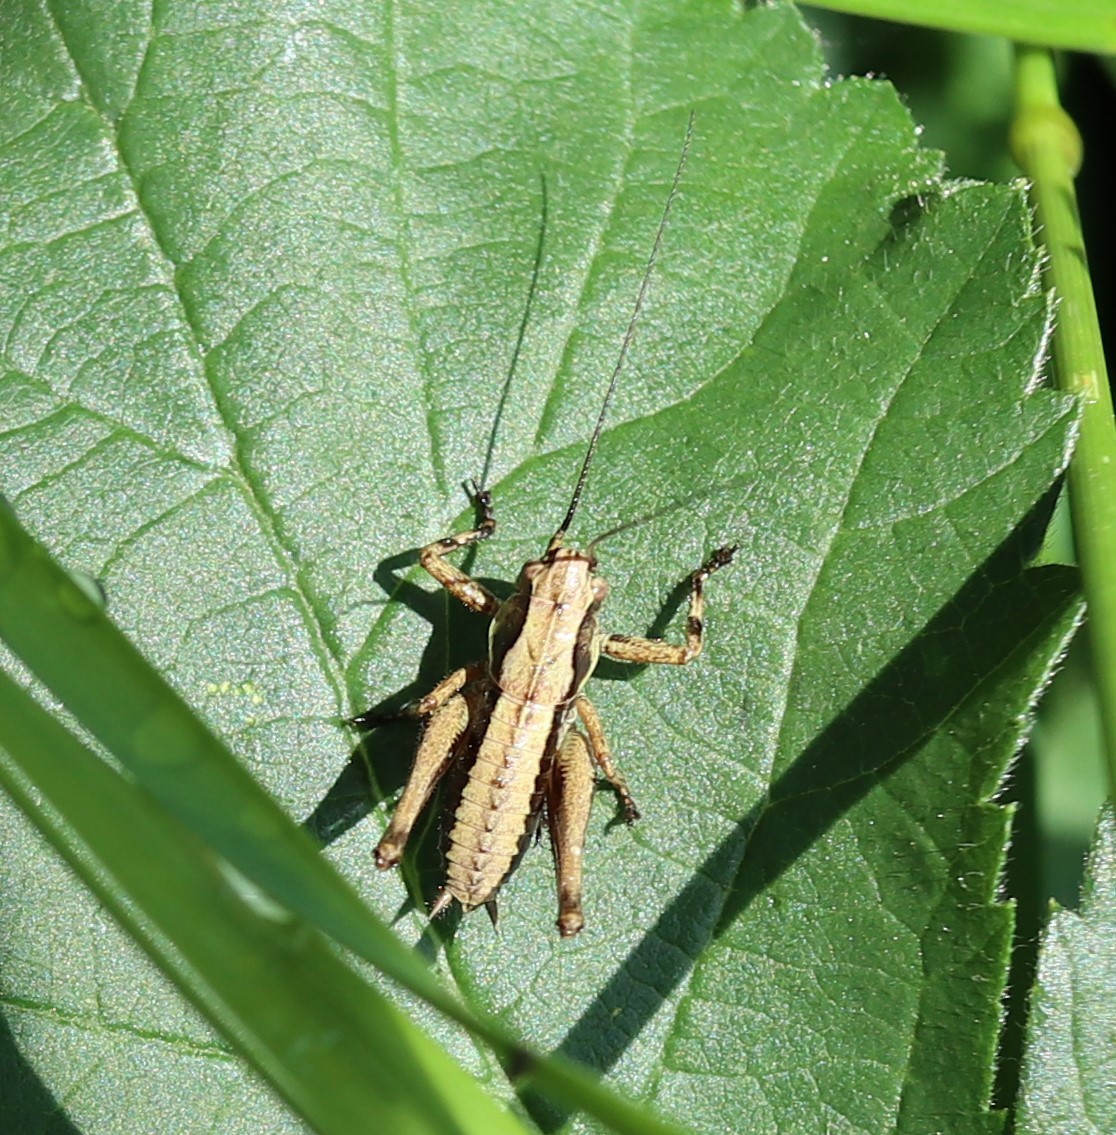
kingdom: Animalia
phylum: Arthropoda
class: Insecta
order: Orthoptera
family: Tettigoniidae
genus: Pholidoptera
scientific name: Pholidoptera griseoaptera
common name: Dark bush-cricket
